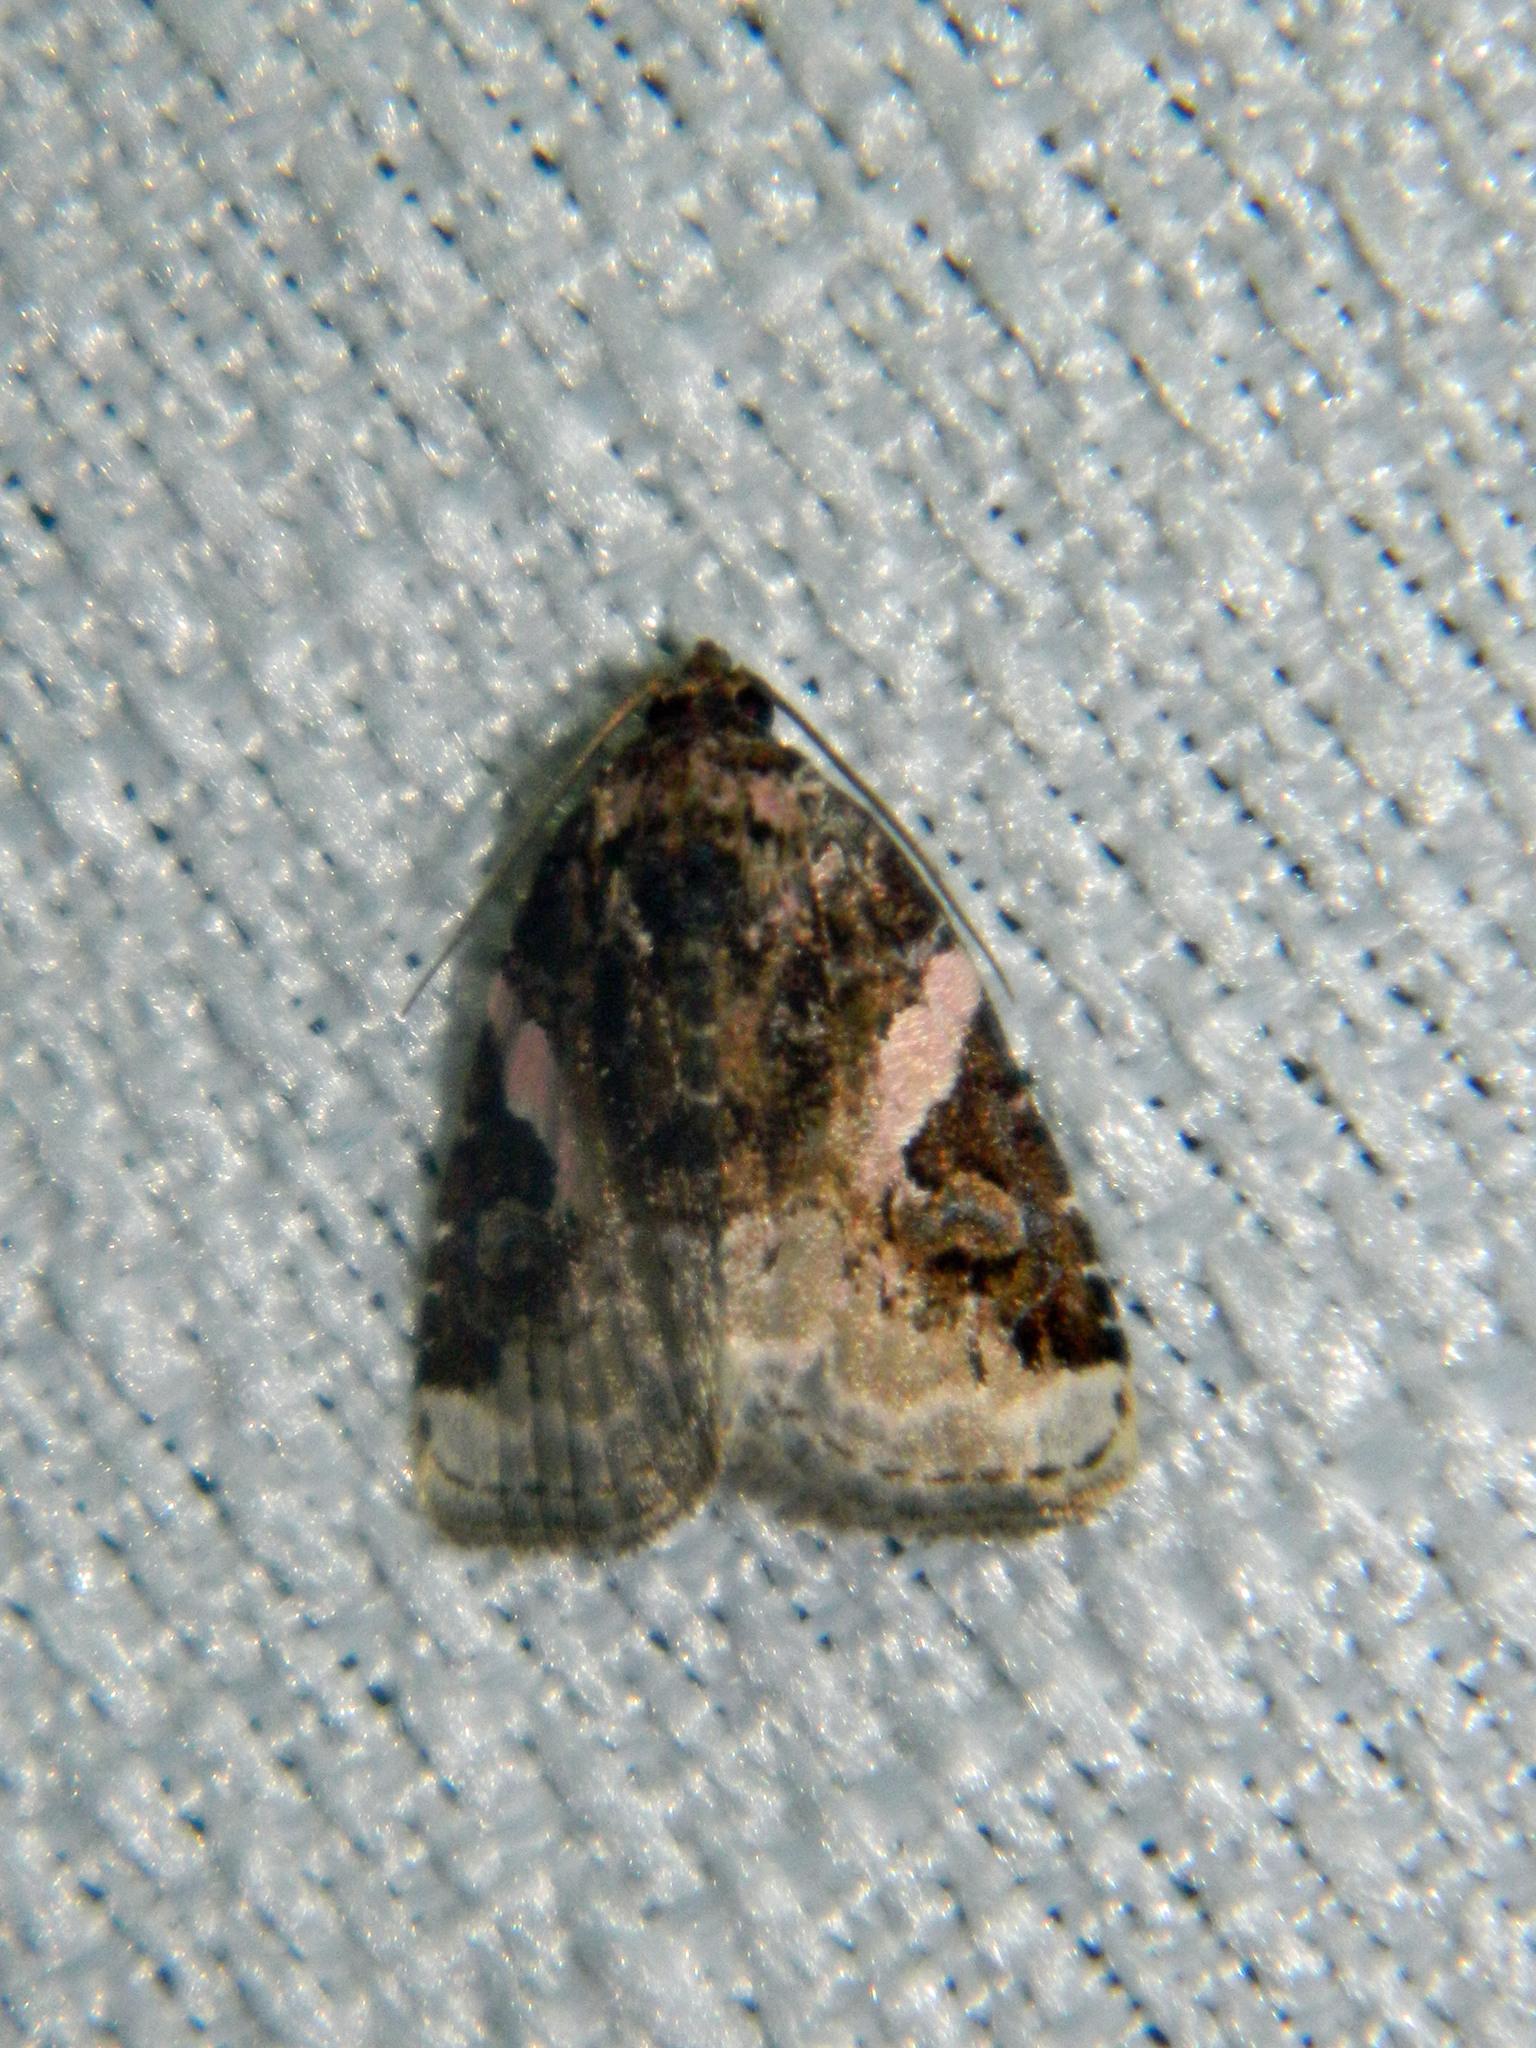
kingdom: Animalia
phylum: Arthropoda
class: Insecta
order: Lepidoptera
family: Noctuidae
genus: Pseudeustrotia
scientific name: Pseudeustrotia carneola
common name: Pink-barred lithacodia moth
